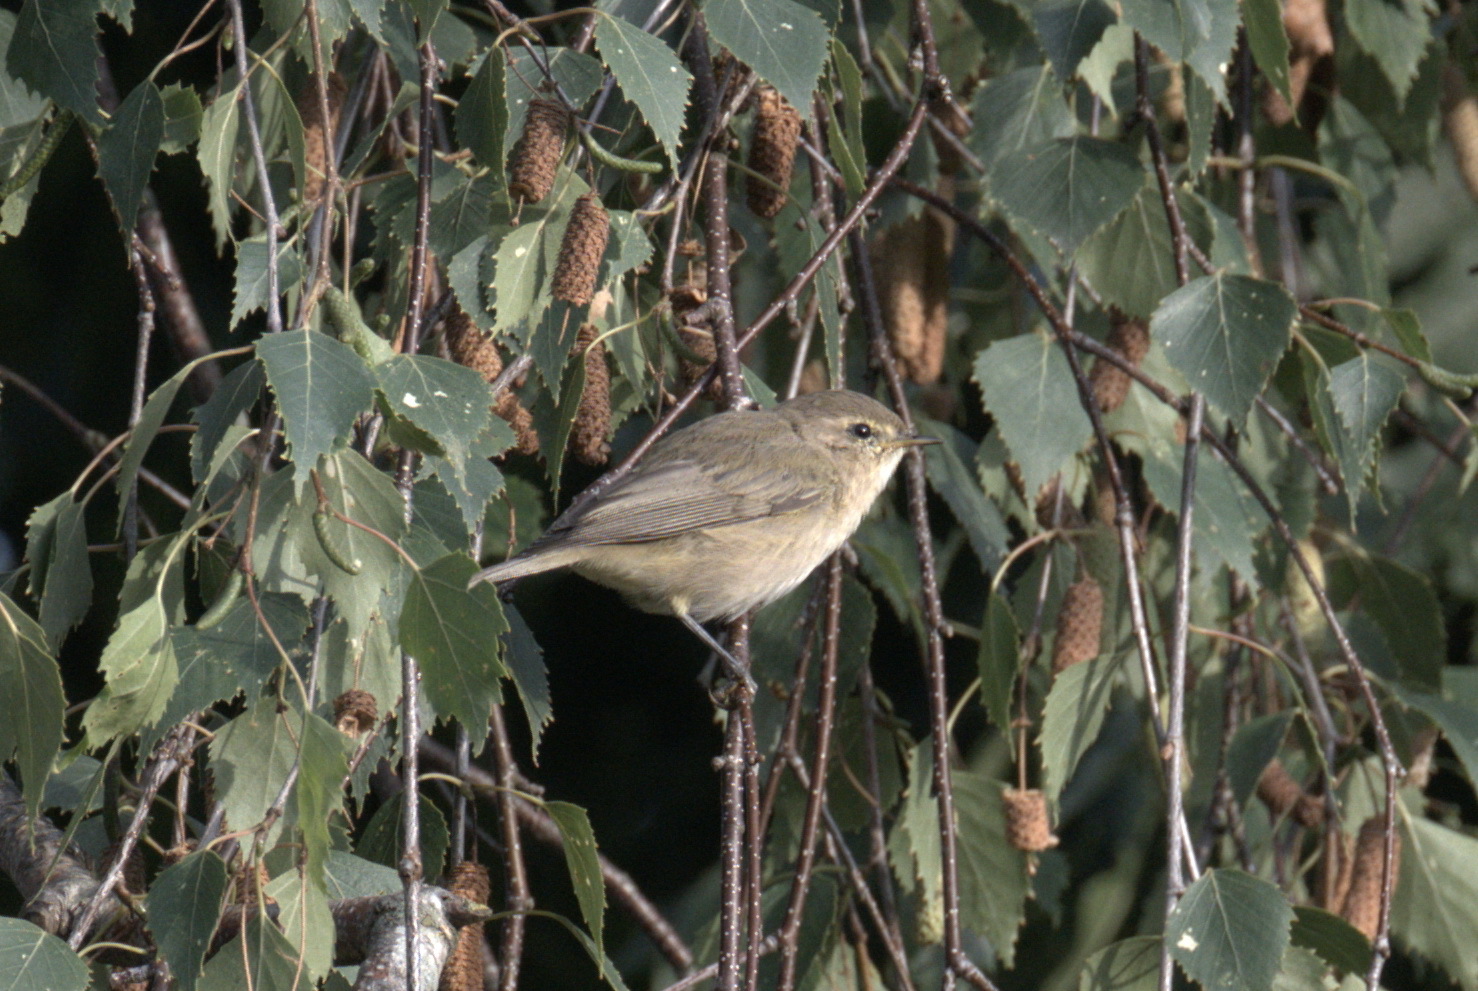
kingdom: Animalia
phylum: Chordata
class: Aves
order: Passeriformes
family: Phylloscopidae
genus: Phylloscopus
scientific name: Phylloscopus collybita
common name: Common chiffchaff
